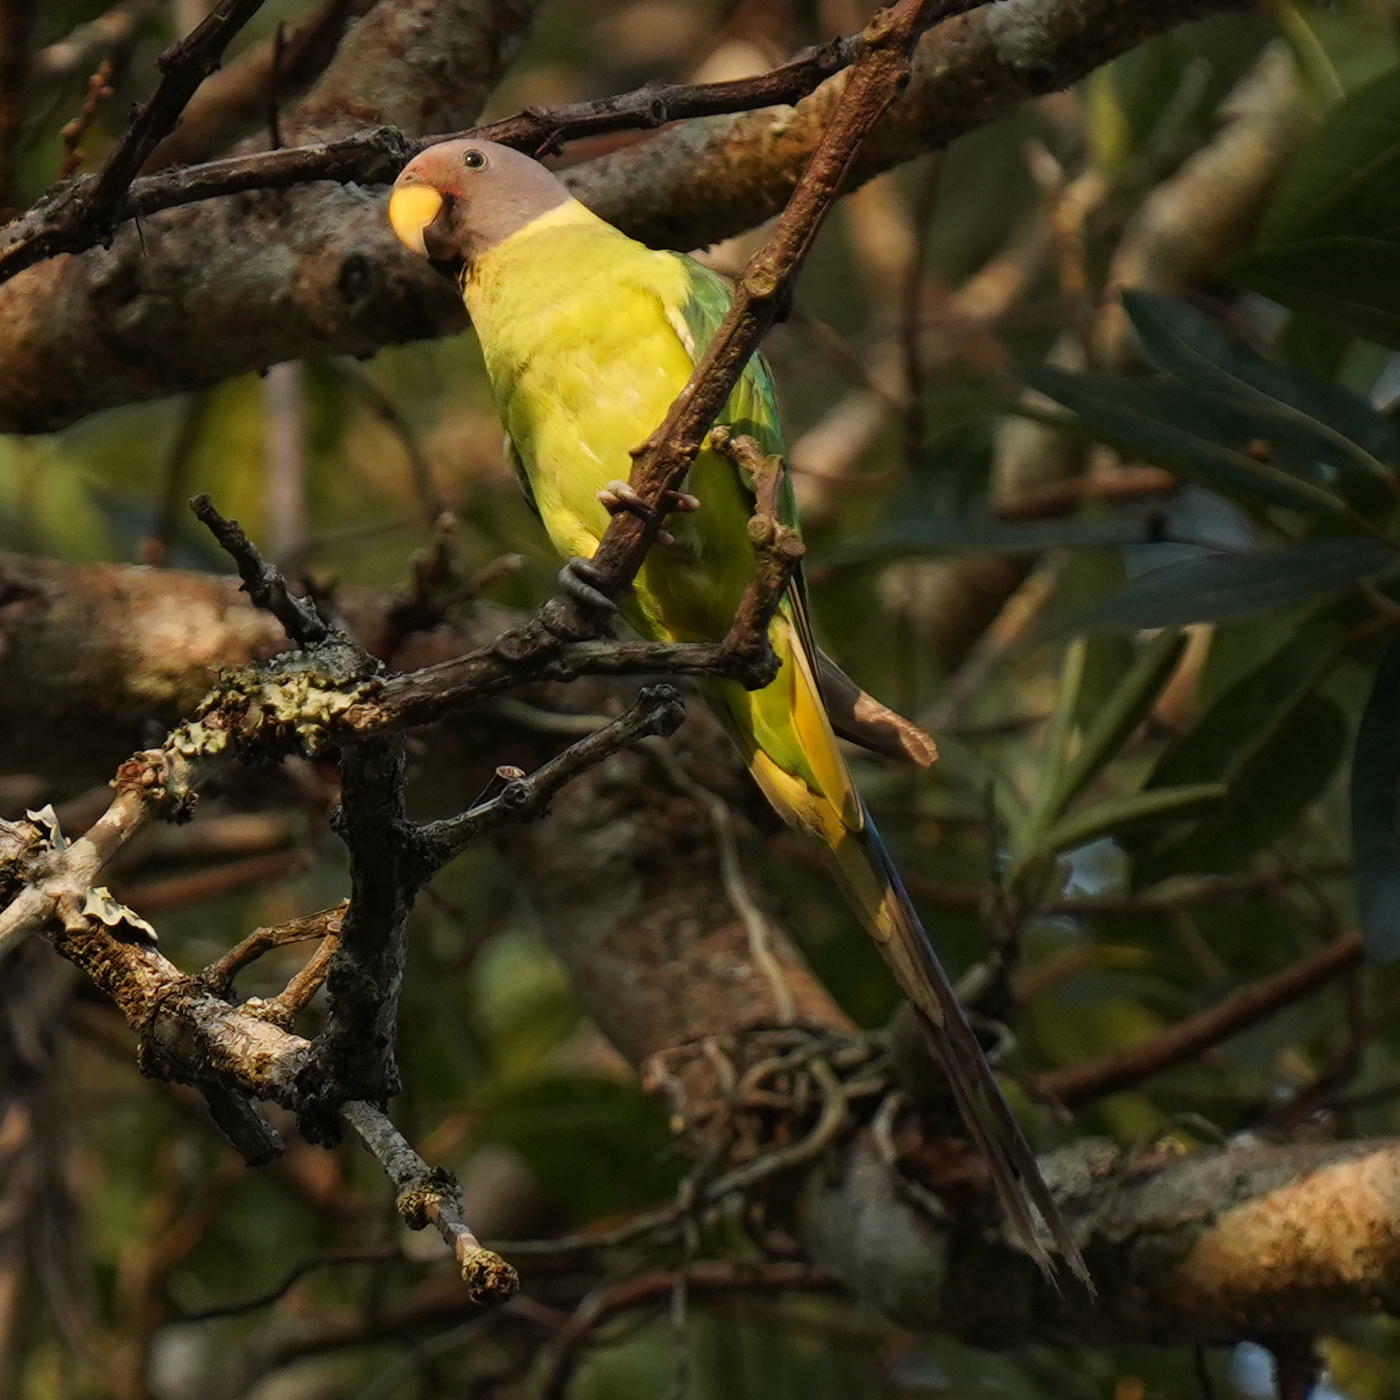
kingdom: Animalia
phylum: Chordata
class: Aves
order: Psittaciformes
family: Psittacidae
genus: Psittacula
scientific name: Psittacula cyanocephala
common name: Plum-headed parakeet
